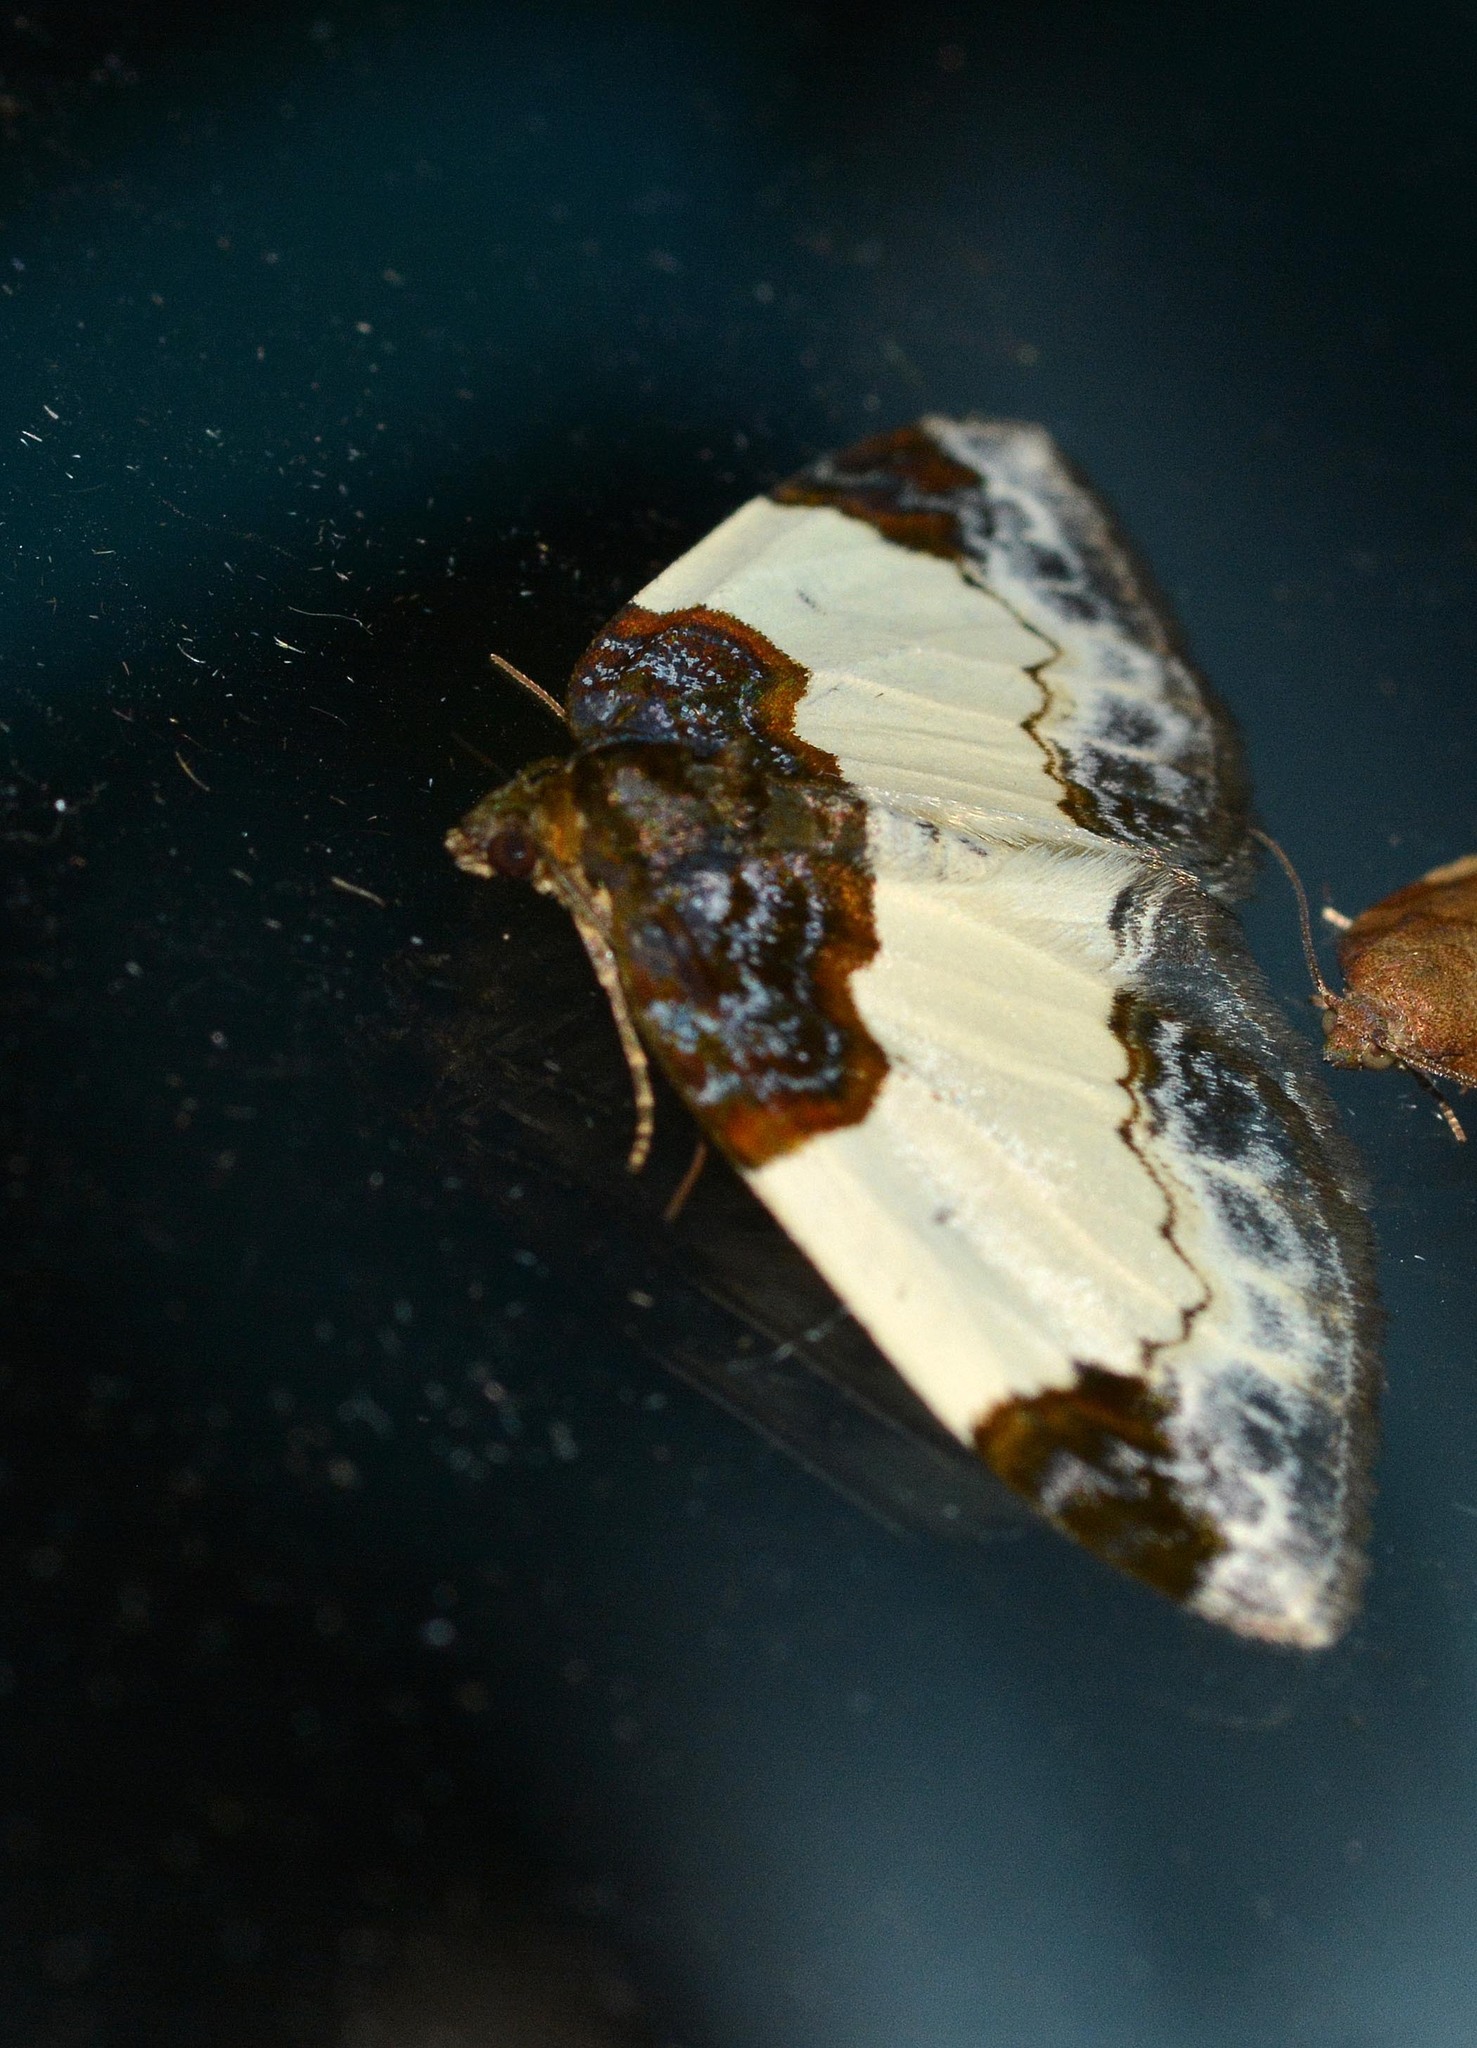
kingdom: Animalia
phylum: Arthropoda
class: Insecta
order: Lepidoptera
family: Geometridae
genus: Mesoleuca
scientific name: Mesoleuca albicillata
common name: Beautiful carpet
